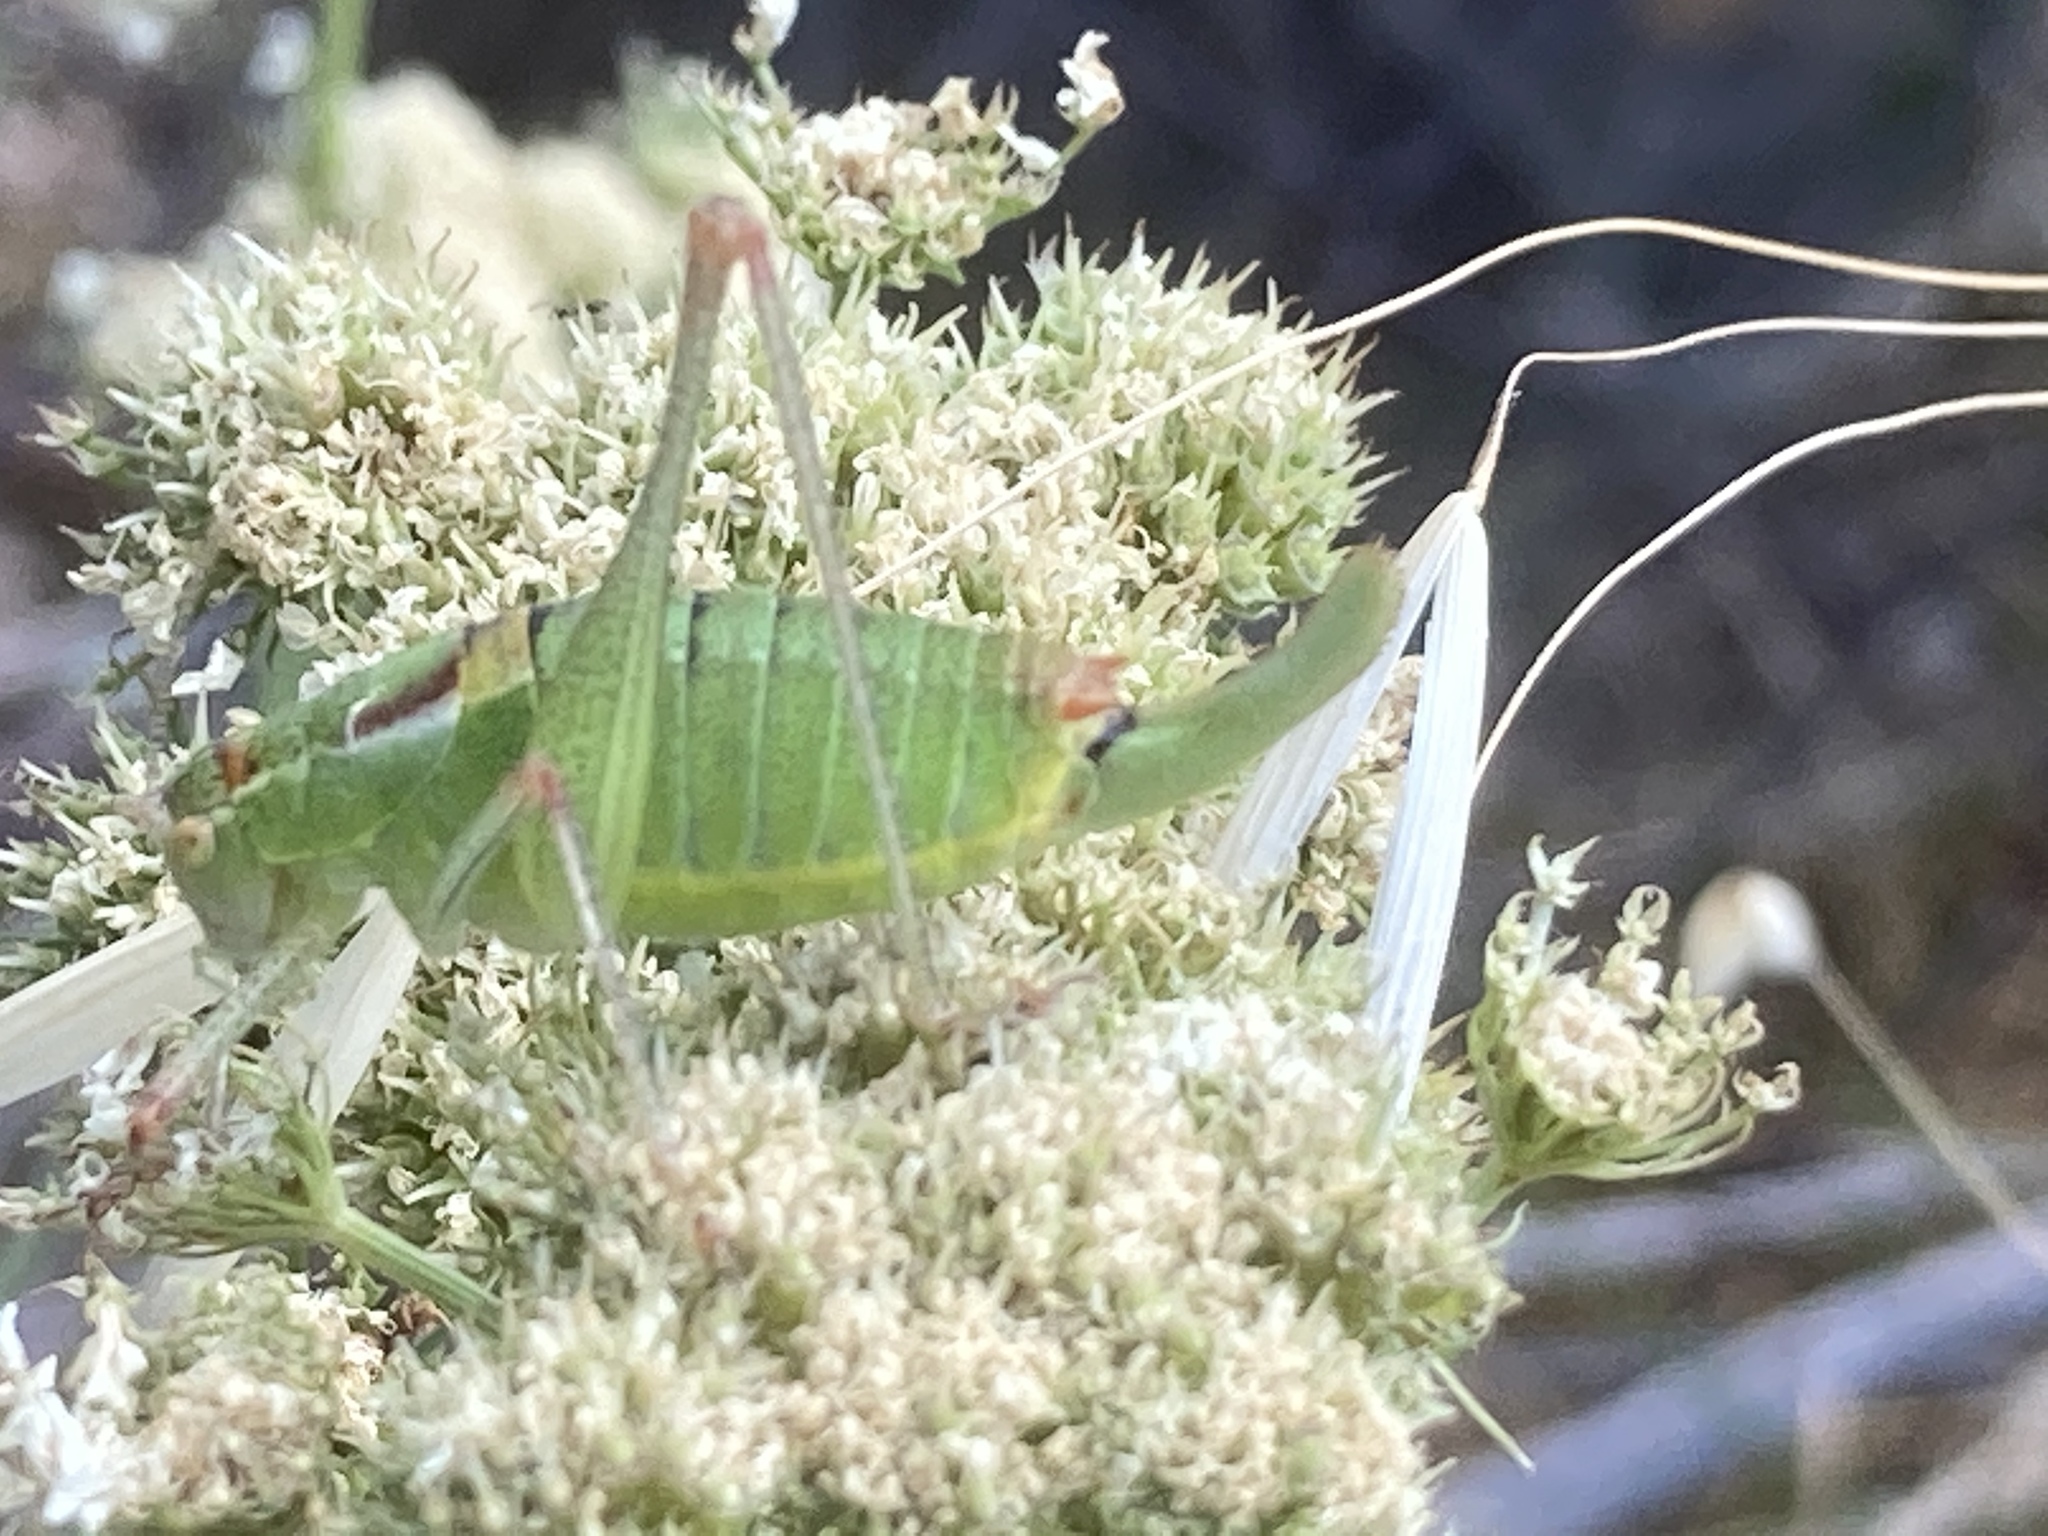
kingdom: Animalia
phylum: Arthropoda
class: Insecta
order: Orthoptera
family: Tettigoniidae
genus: Poecilimon
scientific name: Poecilimon turcicus
